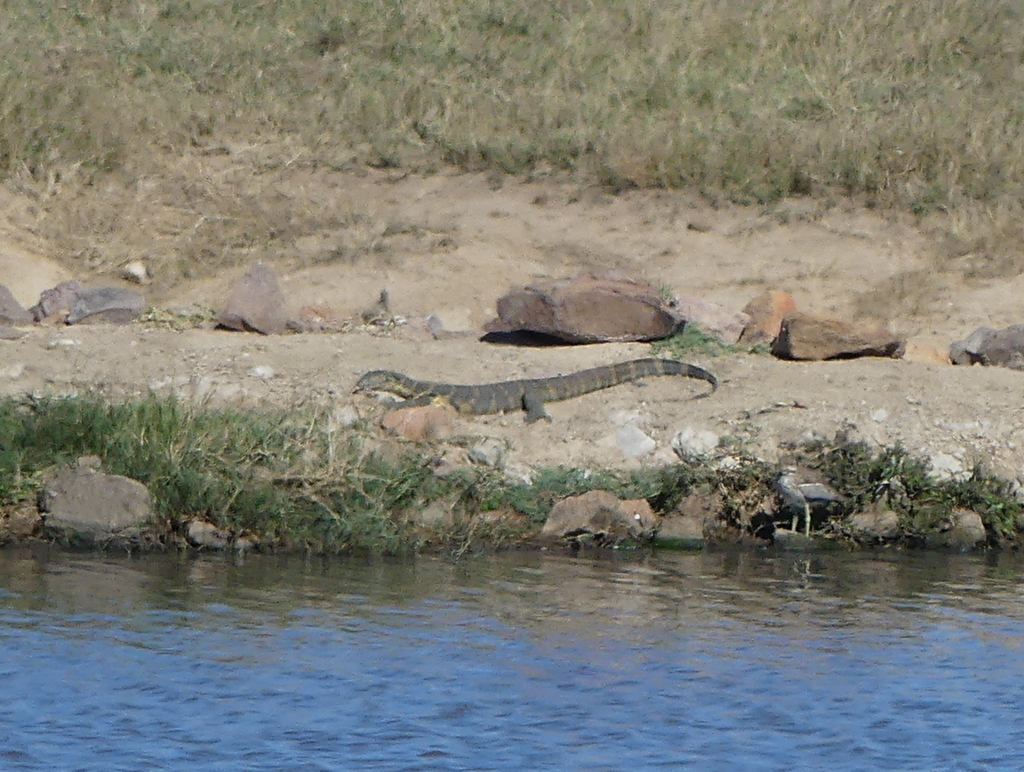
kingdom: Animalia
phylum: Chordata
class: Squamata
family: Varanidae
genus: Varanus
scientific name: Varanus niloticus
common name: Nile monitor
